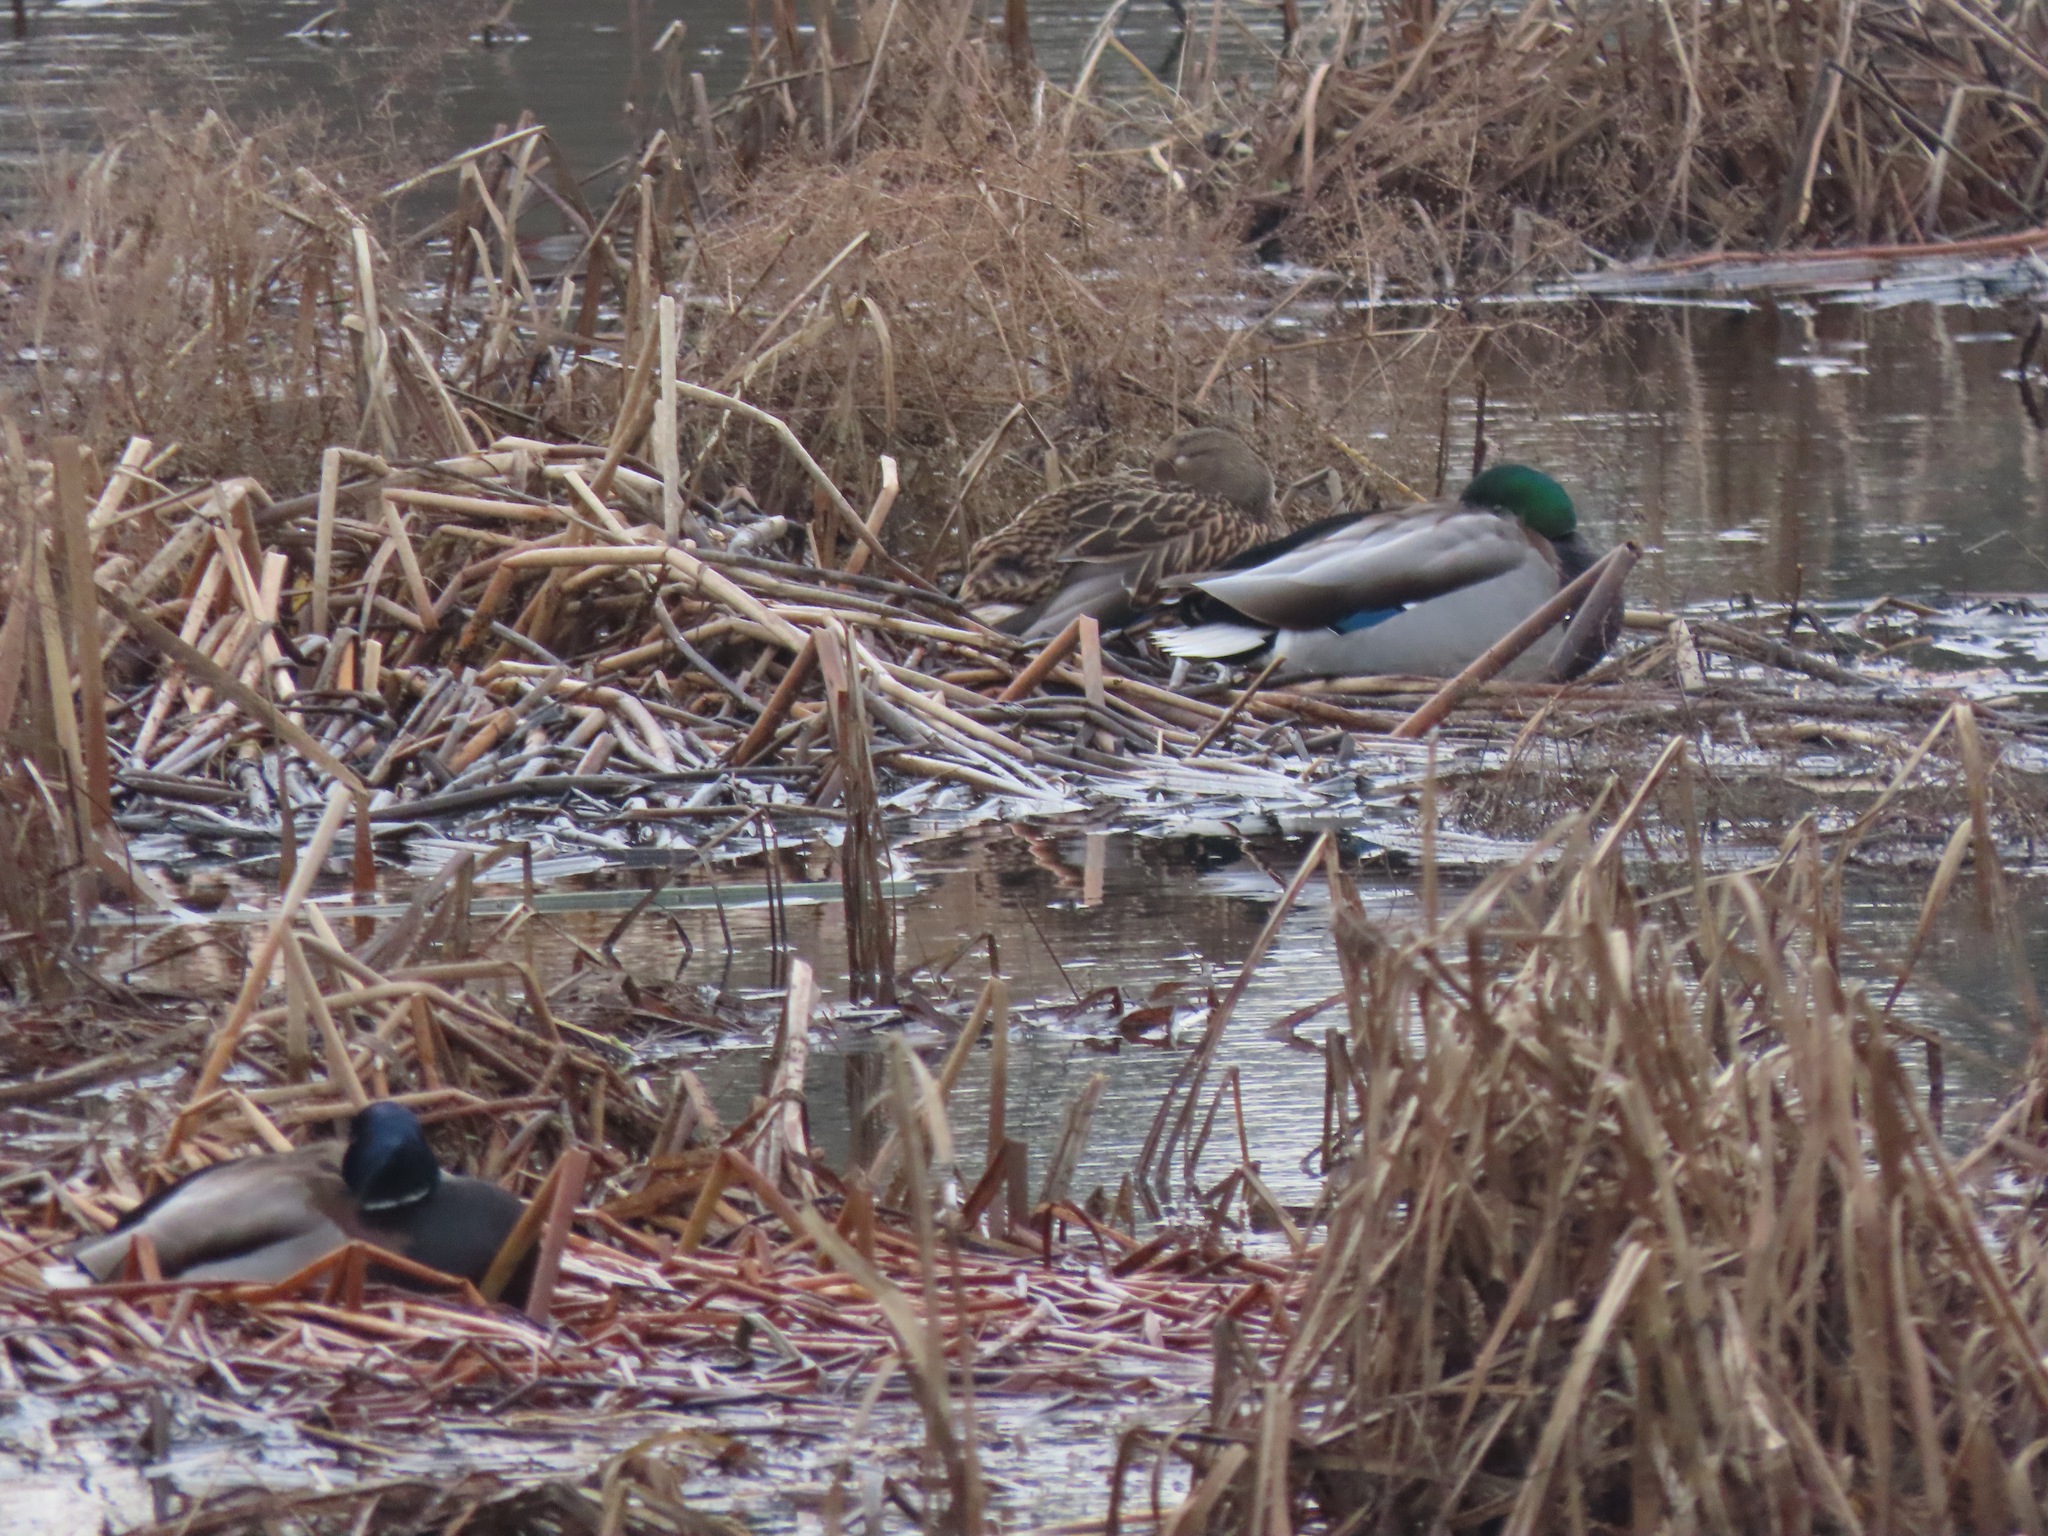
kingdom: Animalia
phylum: Chordata
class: Aves
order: Anseriformes
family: Anatidae
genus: Anas
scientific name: Anas platyrhynchos
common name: Mallard
